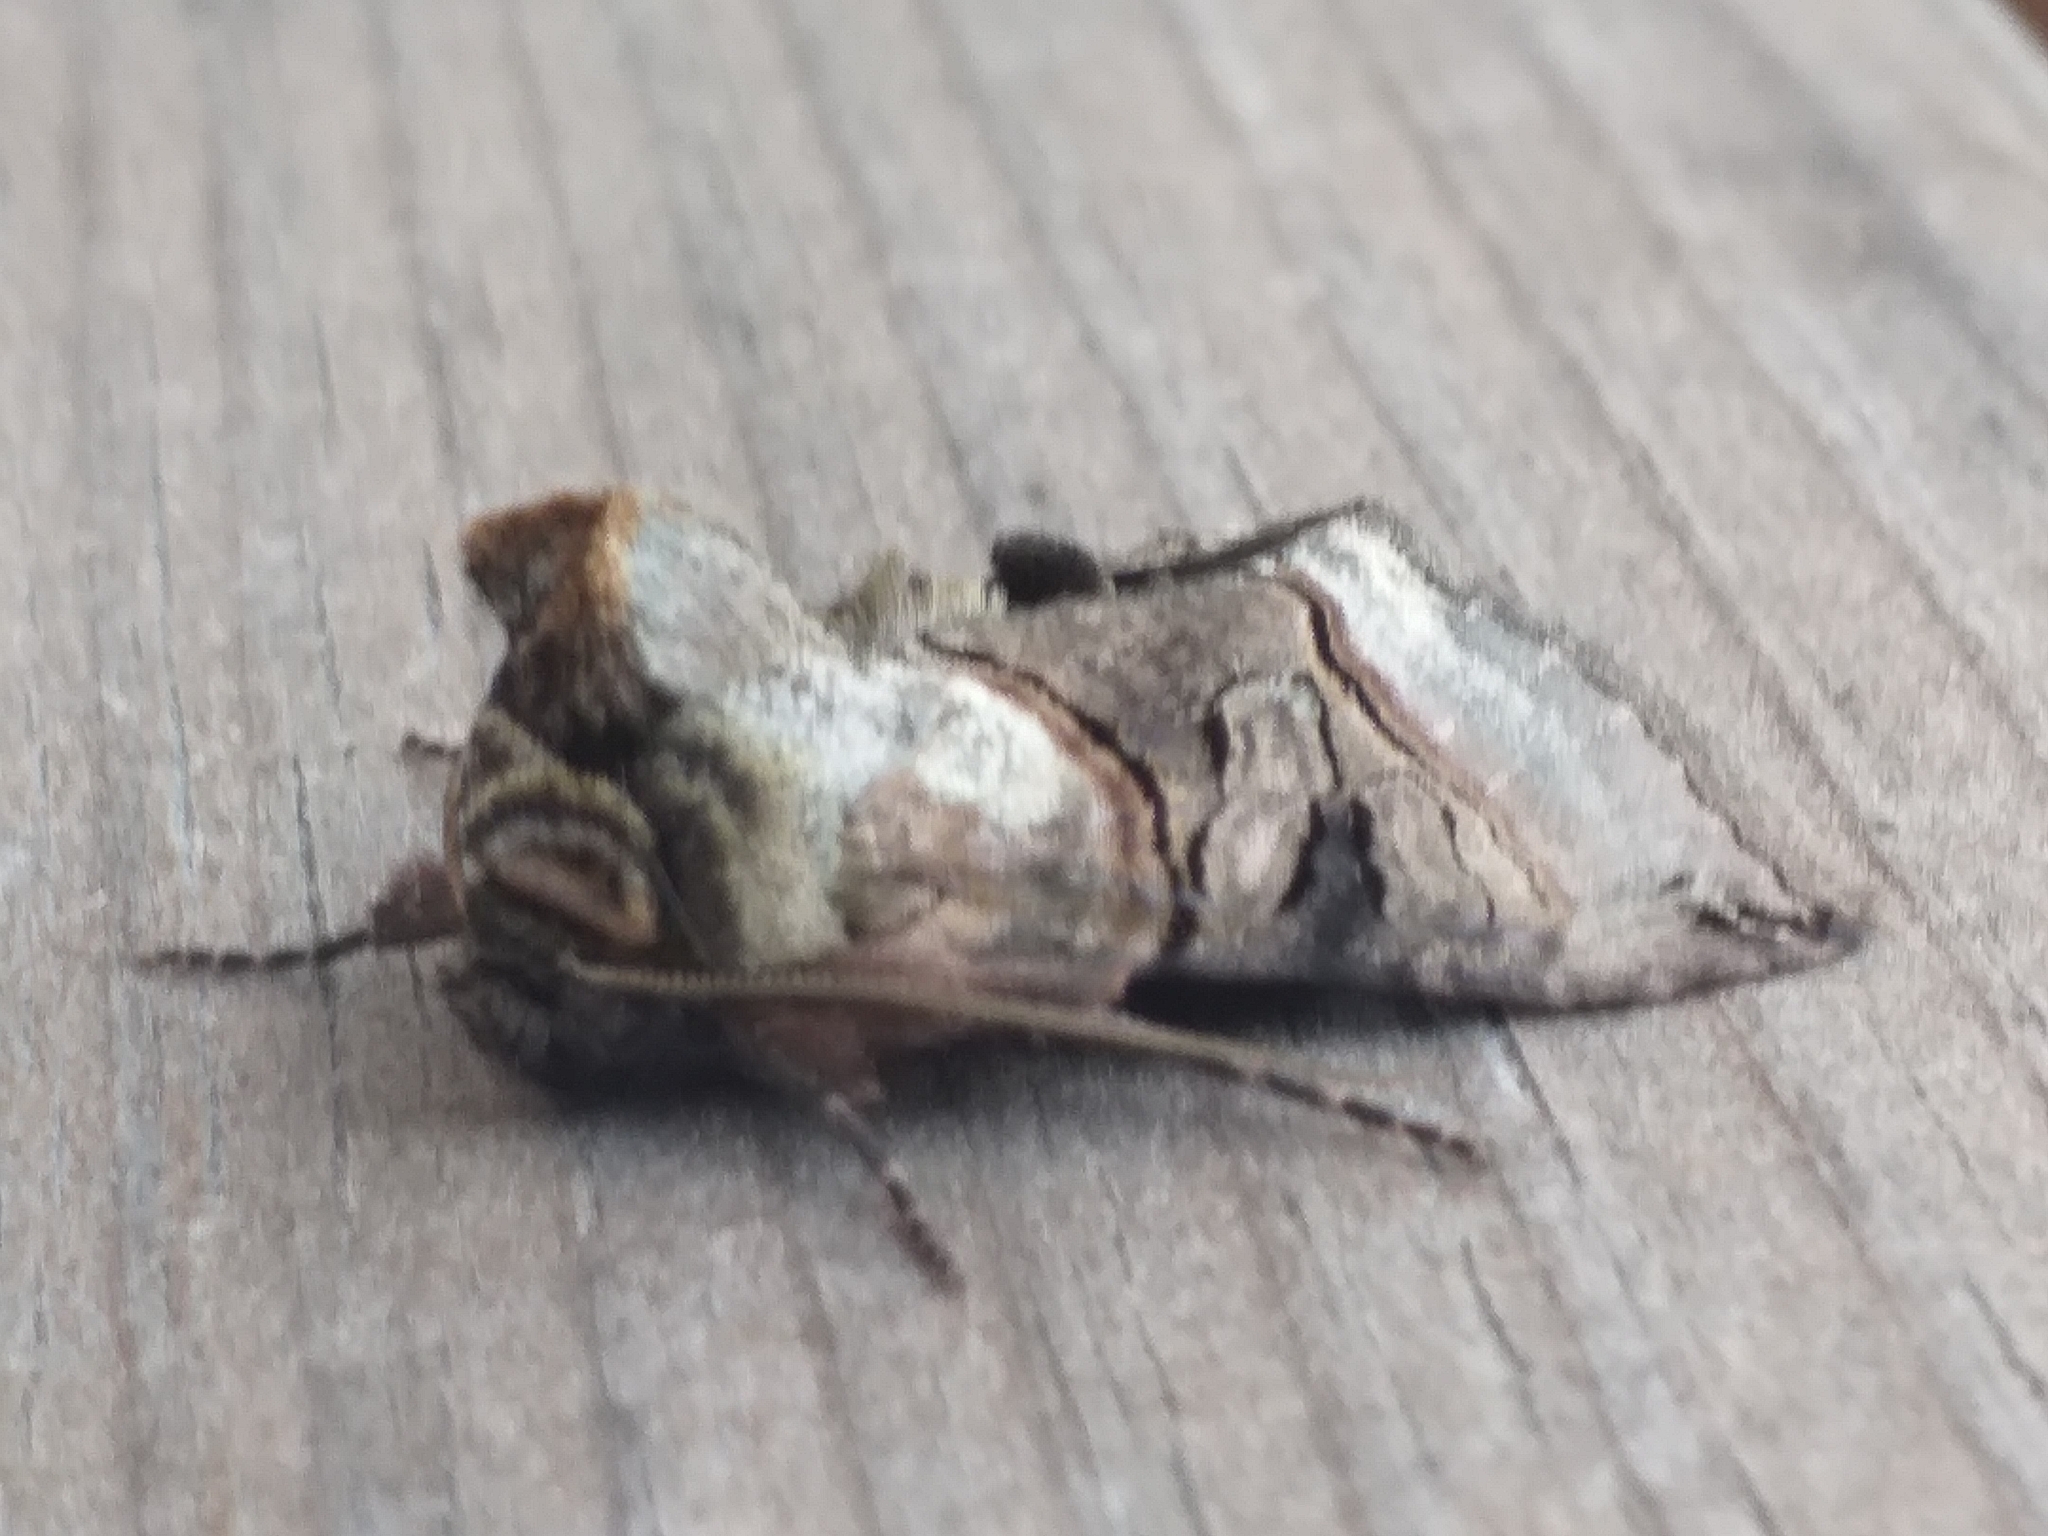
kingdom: Animalia
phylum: Arthropoda
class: Insecta
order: Lepidoptera
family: Noctuidae
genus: Abrostola
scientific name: Abrostola tripartita
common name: Spectacle
